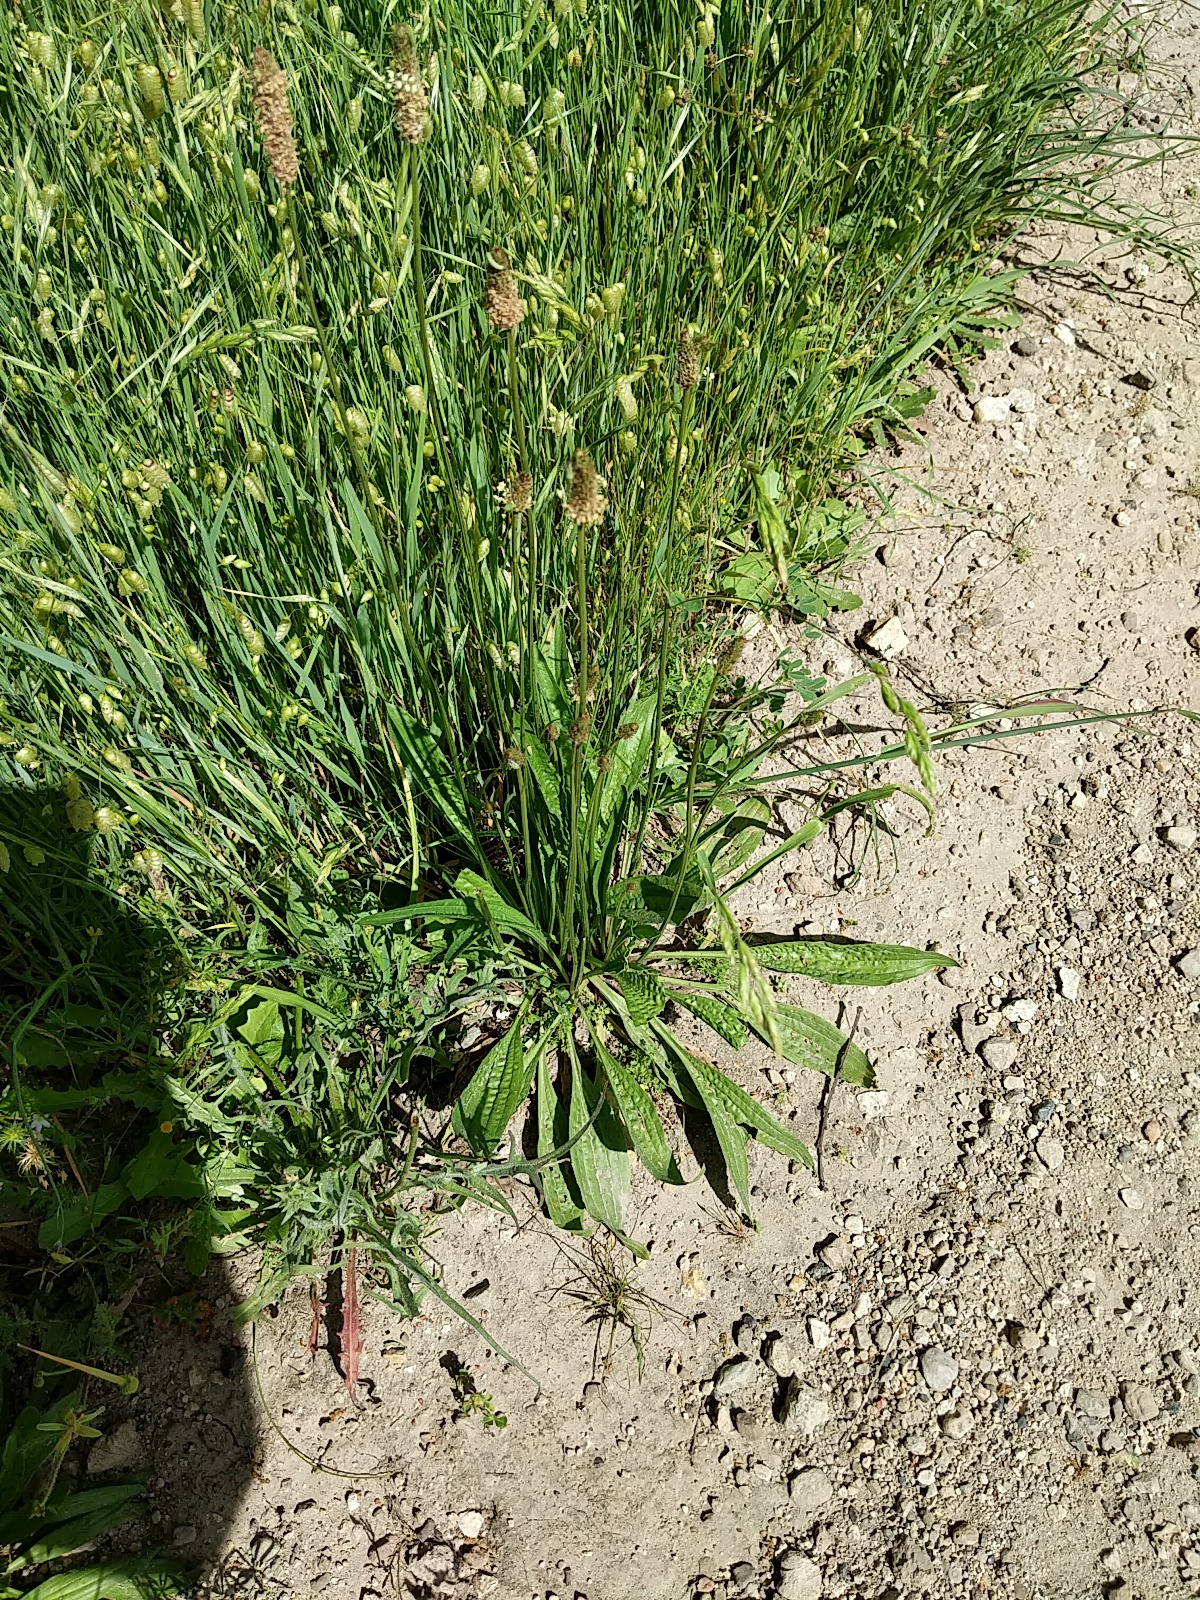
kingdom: Plantae
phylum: Tracheophyta
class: Magnoliopsida
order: Lamiales
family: Plantaginaceae
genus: Plantago
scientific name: Plantago lanceolata
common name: Ribwort plantain
